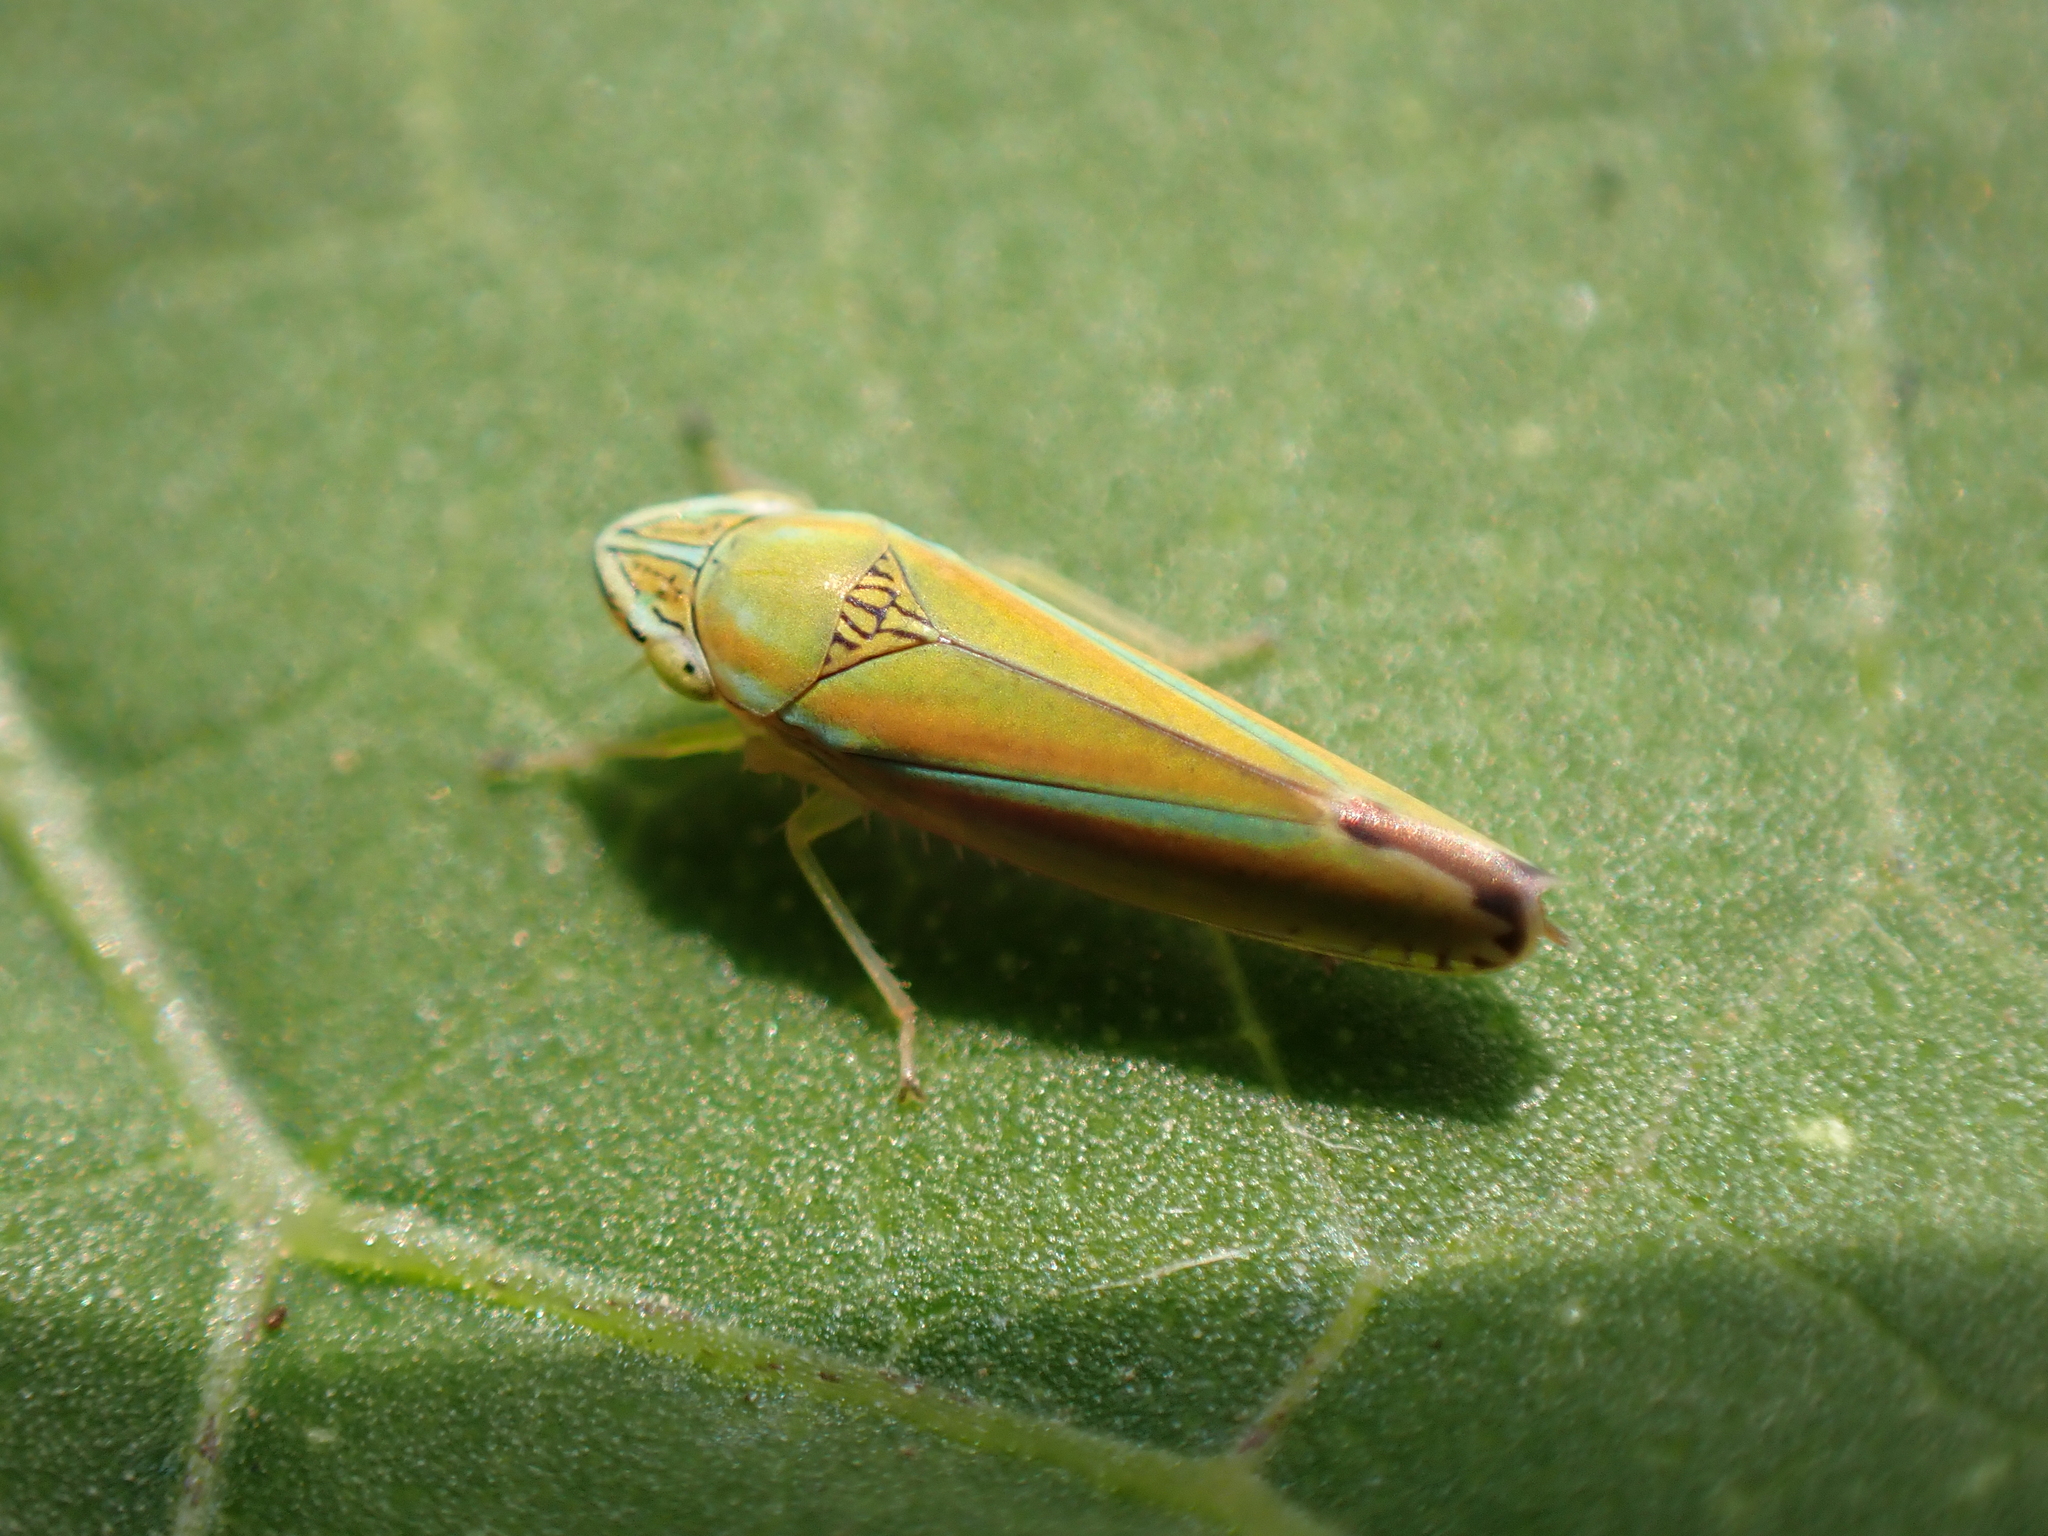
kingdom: Animalia
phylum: Arthropoda
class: Insecta
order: Hemiptera
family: Cicadellidae
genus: Graphocephala
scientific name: Graphocephala versuta
